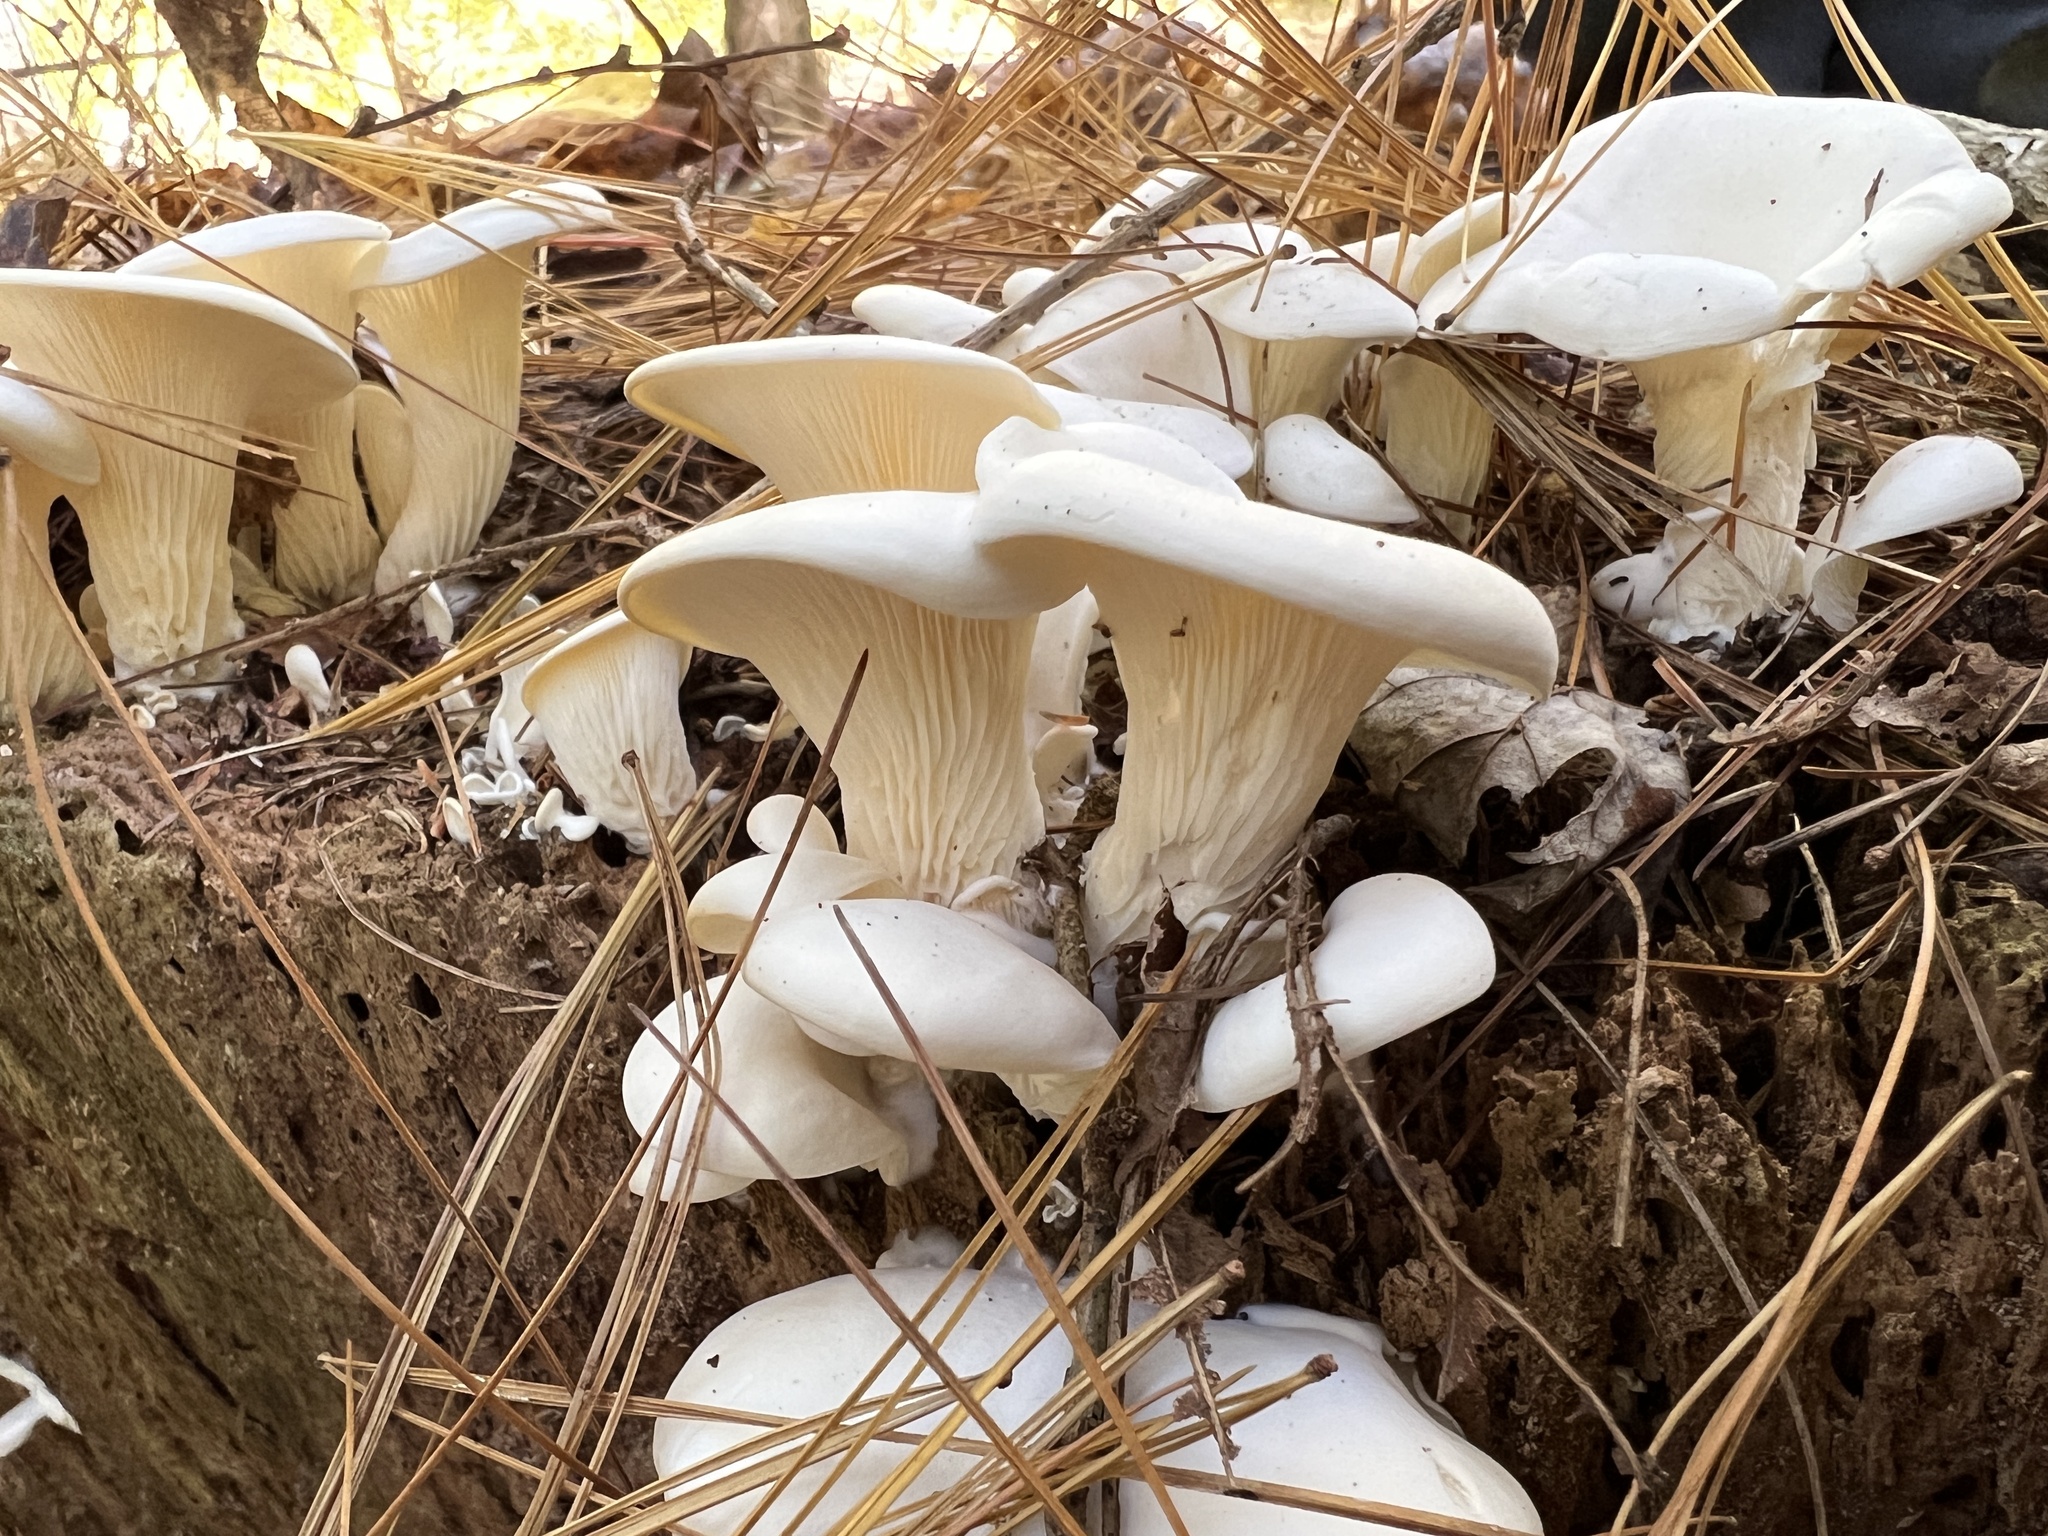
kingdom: Fungi
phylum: Basidiomycota
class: Agaricomycetes
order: Agaricales
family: Marasmiaceae
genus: Pleurocybella
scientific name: Pleurocybella porrigens
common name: Angel's wings
